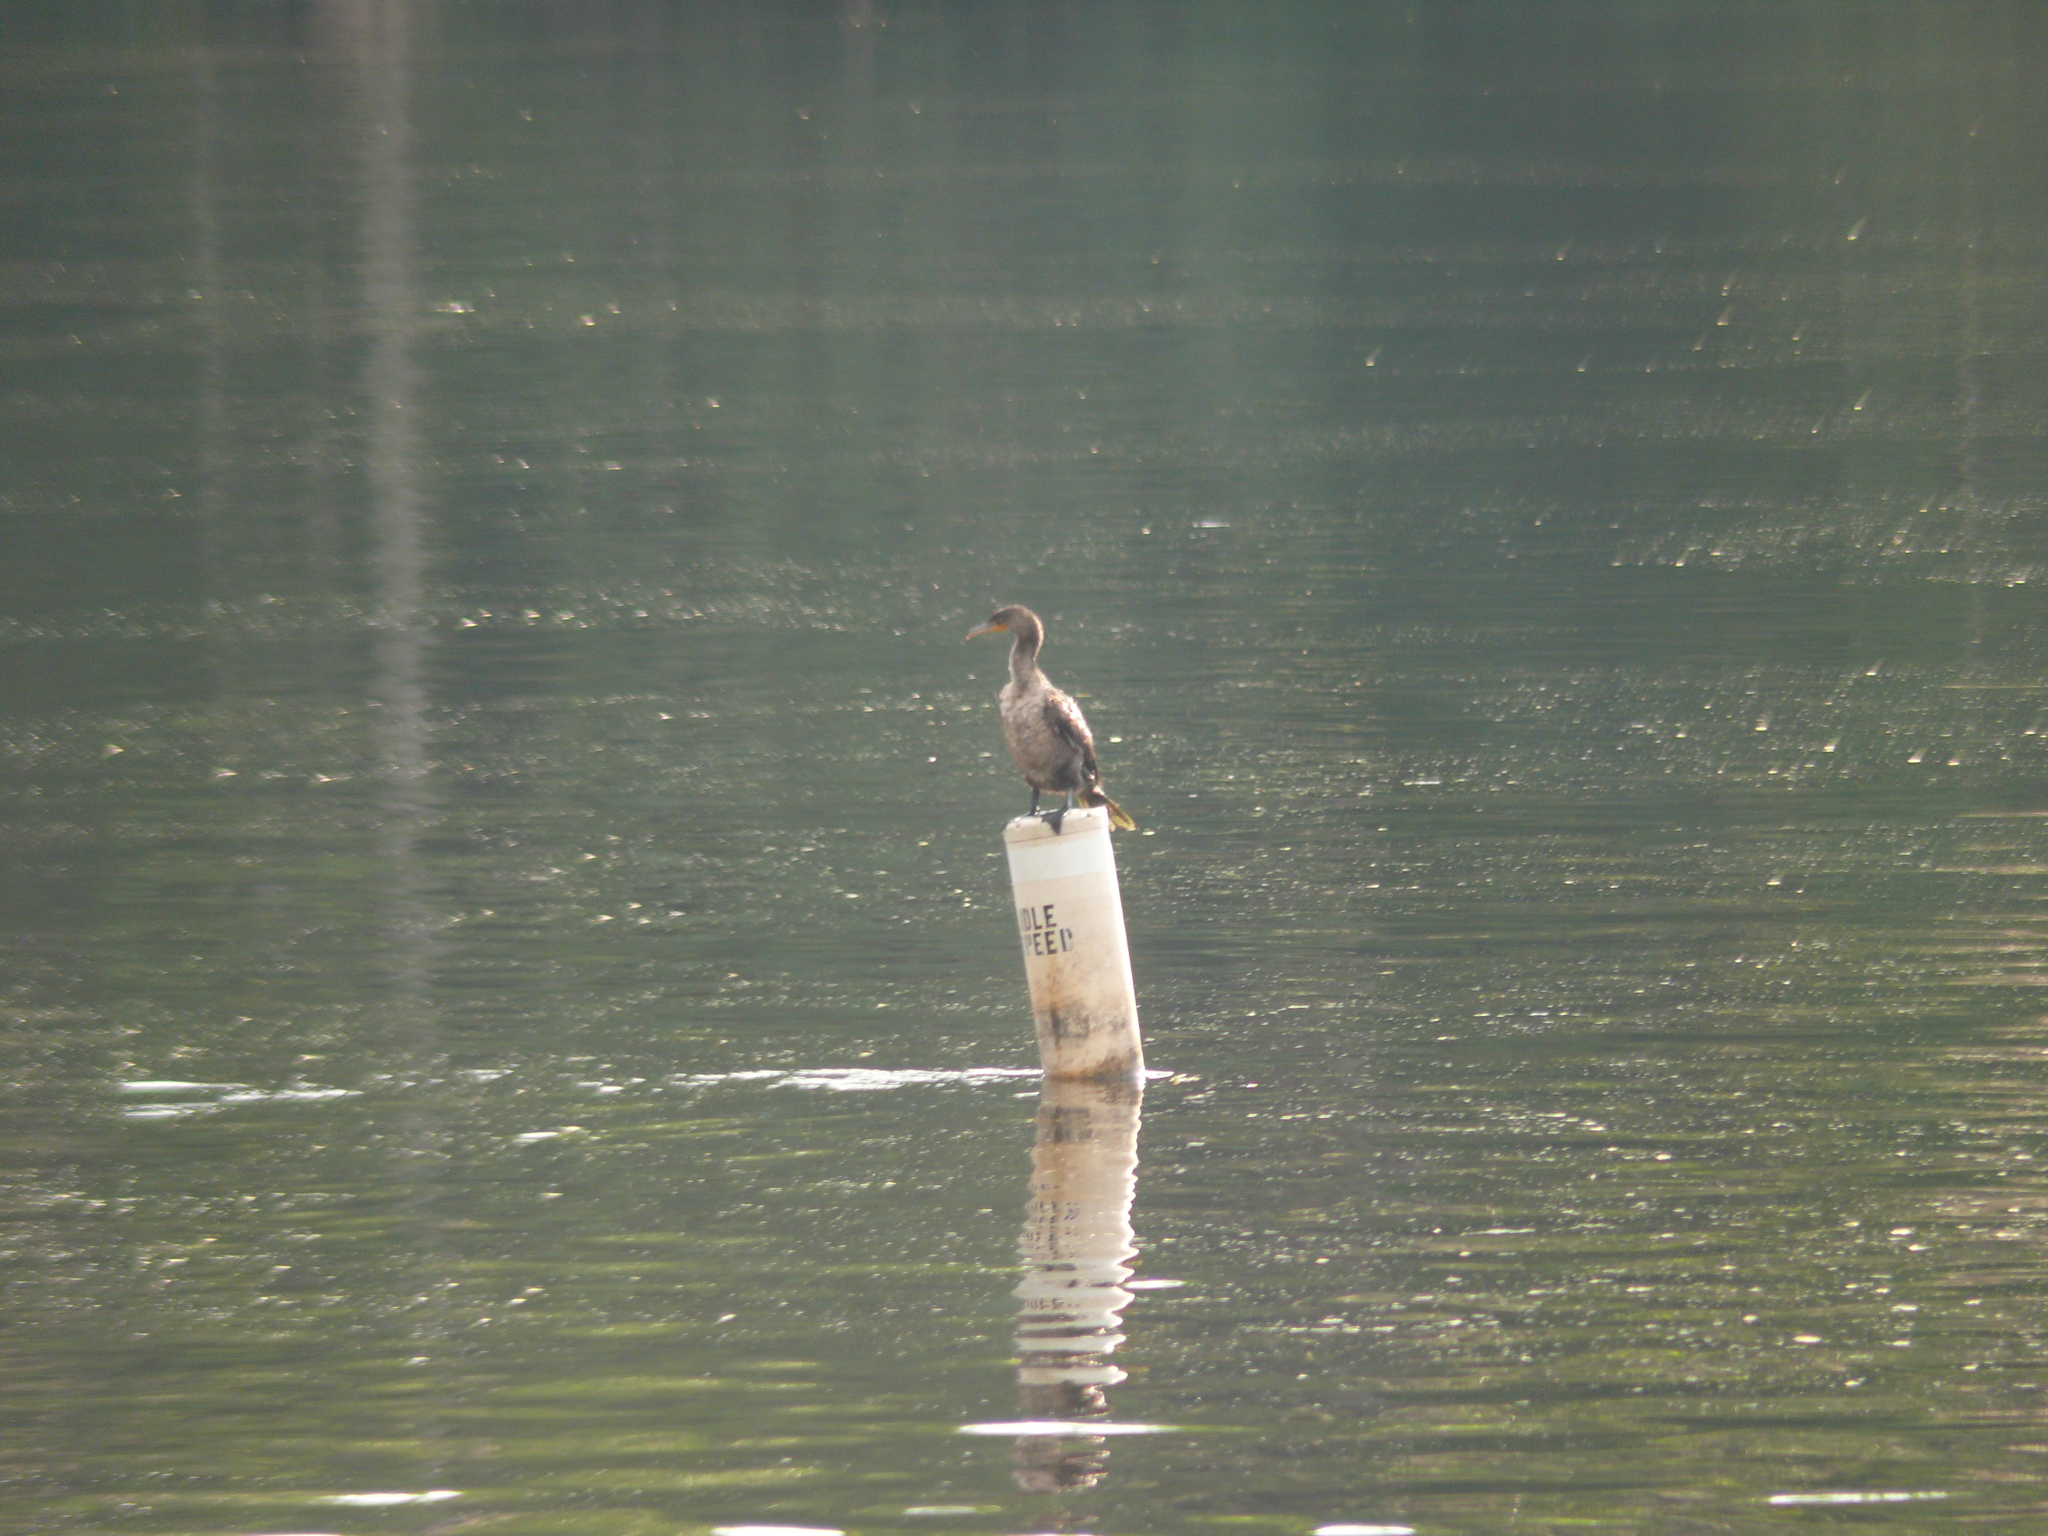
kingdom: Animalia
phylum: Chordata
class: Aves
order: Suliformes
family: Phalacrocoracidae
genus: Phalacrocorax
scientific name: Phalacrocorax auritus
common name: Double-crested cormorant
